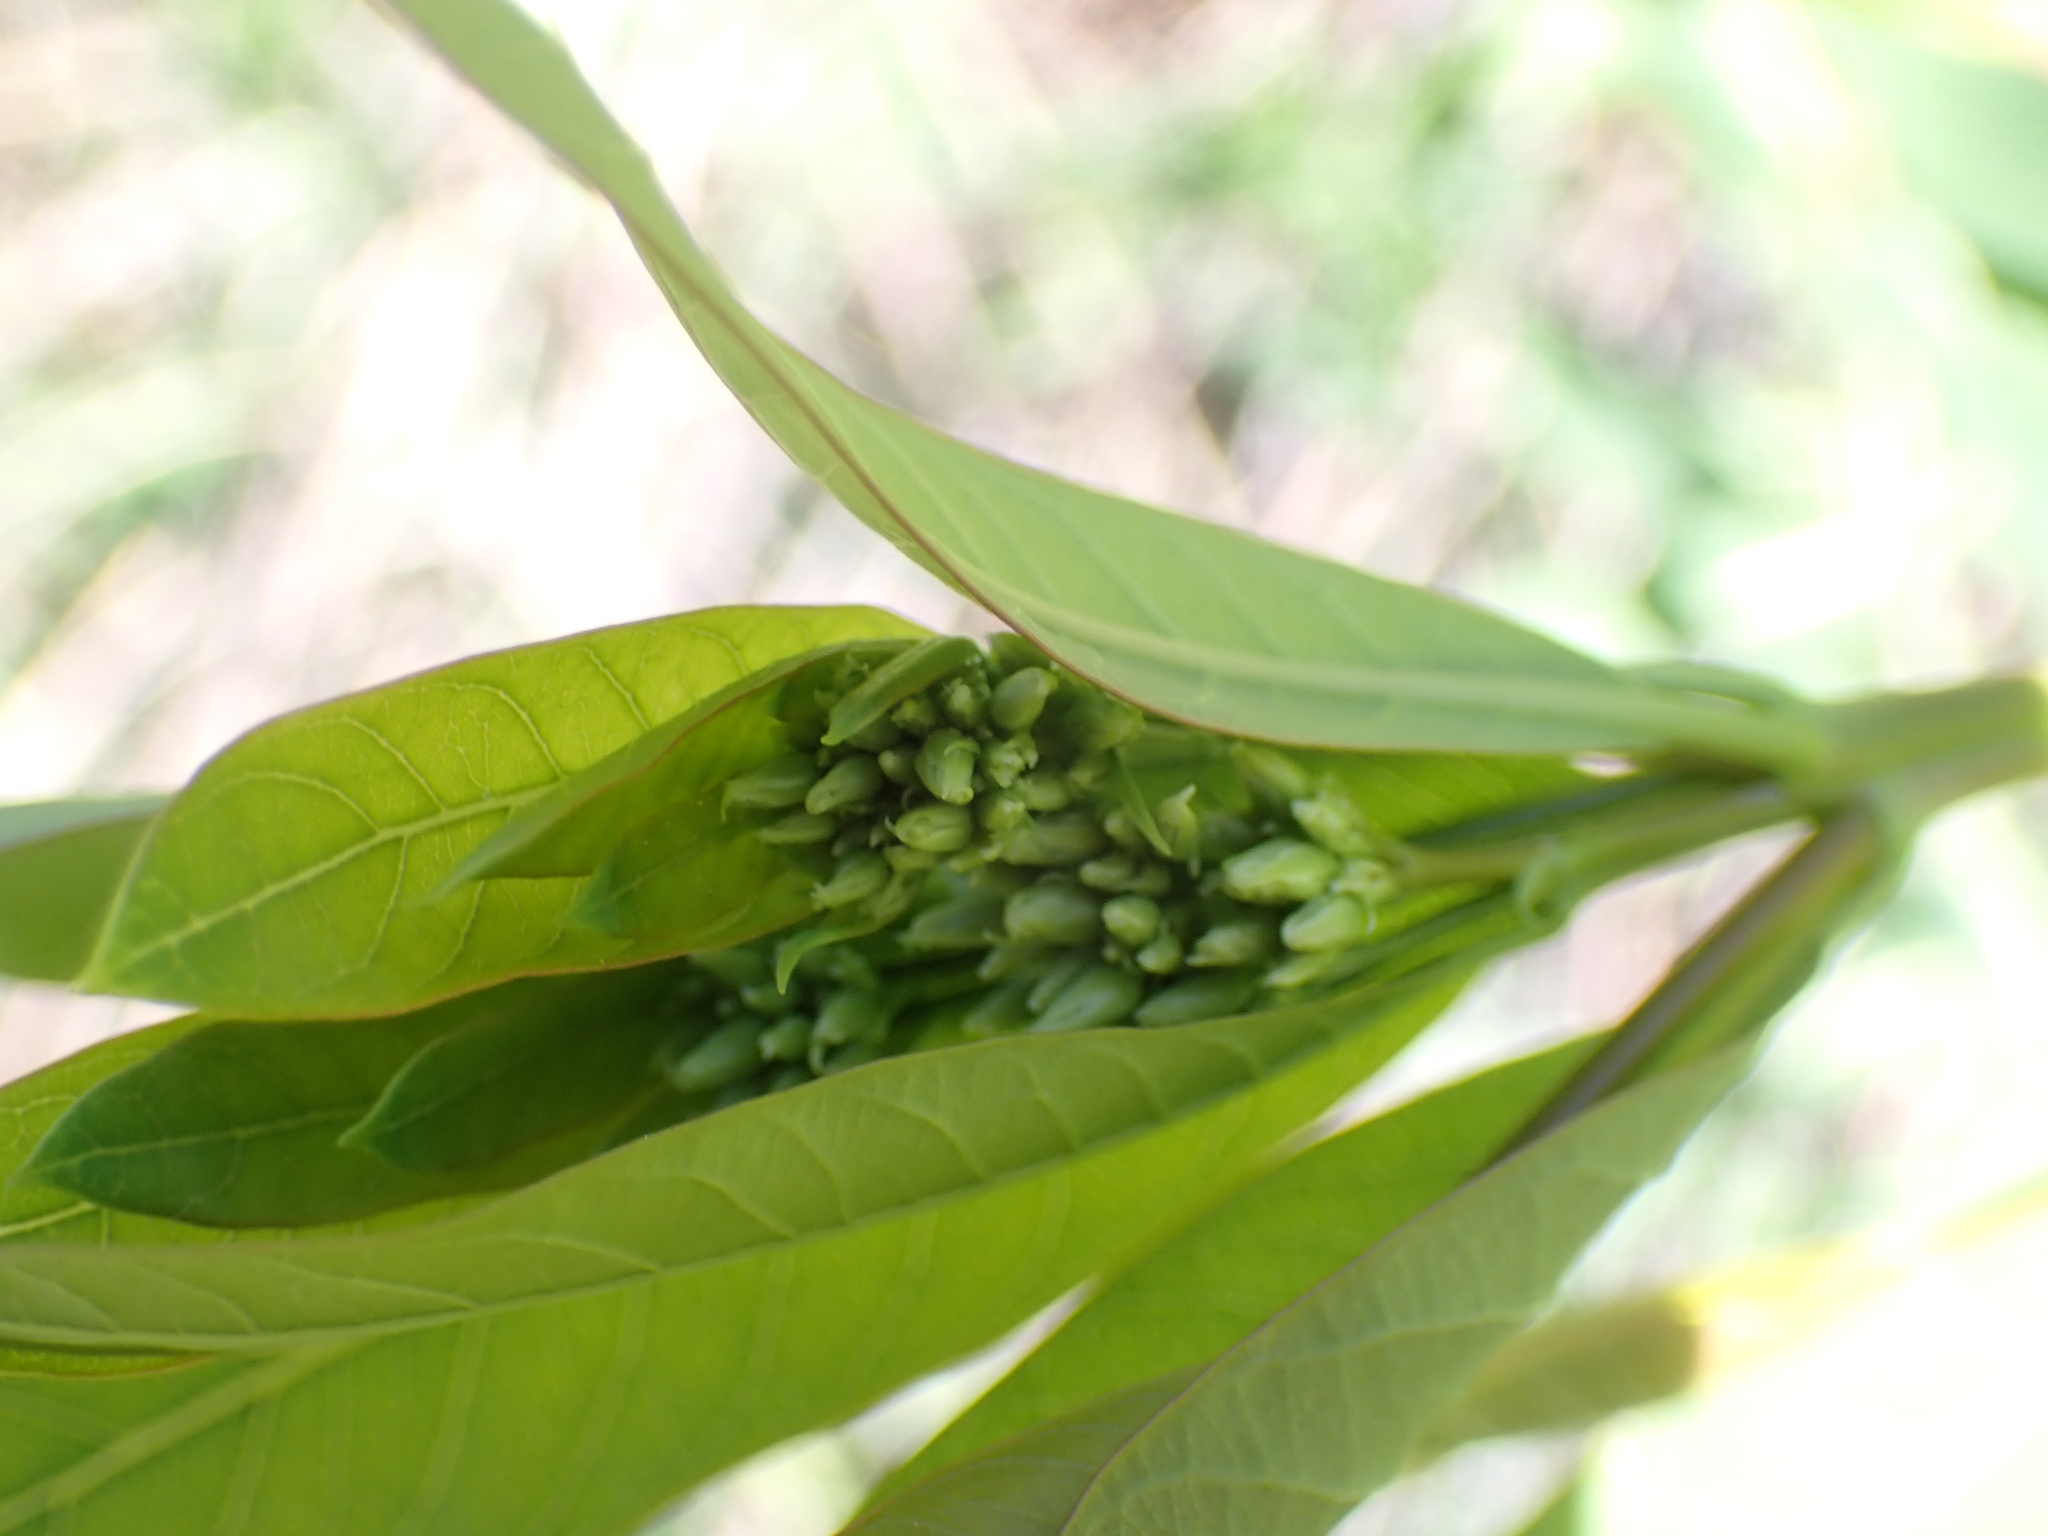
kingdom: Plantae
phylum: Tracheophyta
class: Magnoliopsida
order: Gentianales
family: Apocynaceae
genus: Apocynum
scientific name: Apocynum cannabinum
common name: Hemp dogbane
